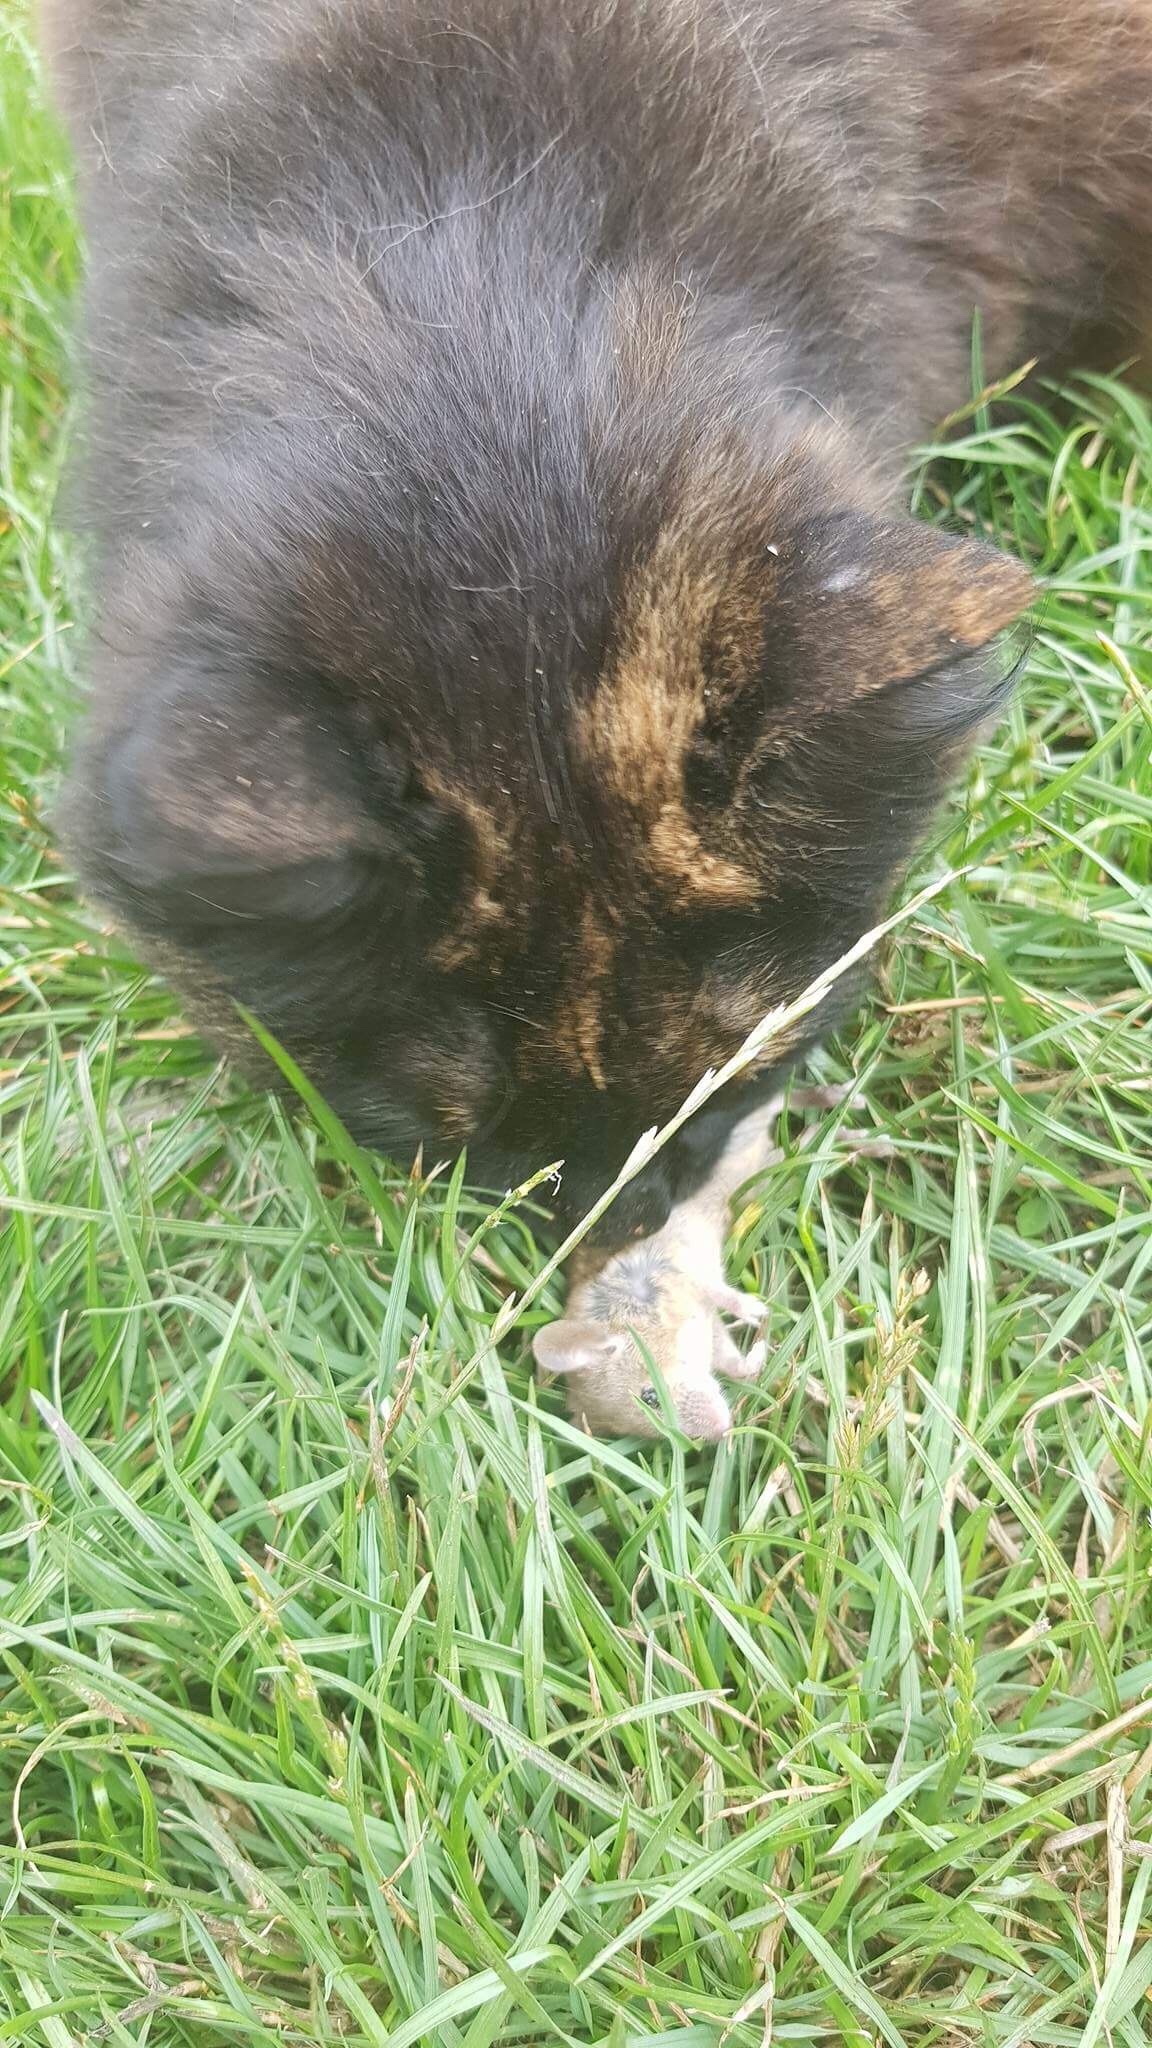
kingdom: Animalia
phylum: Chordata
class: Mammalia
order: Rodentia
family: Muridae
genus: Mus
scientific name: Mus musculus
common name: House mouse
